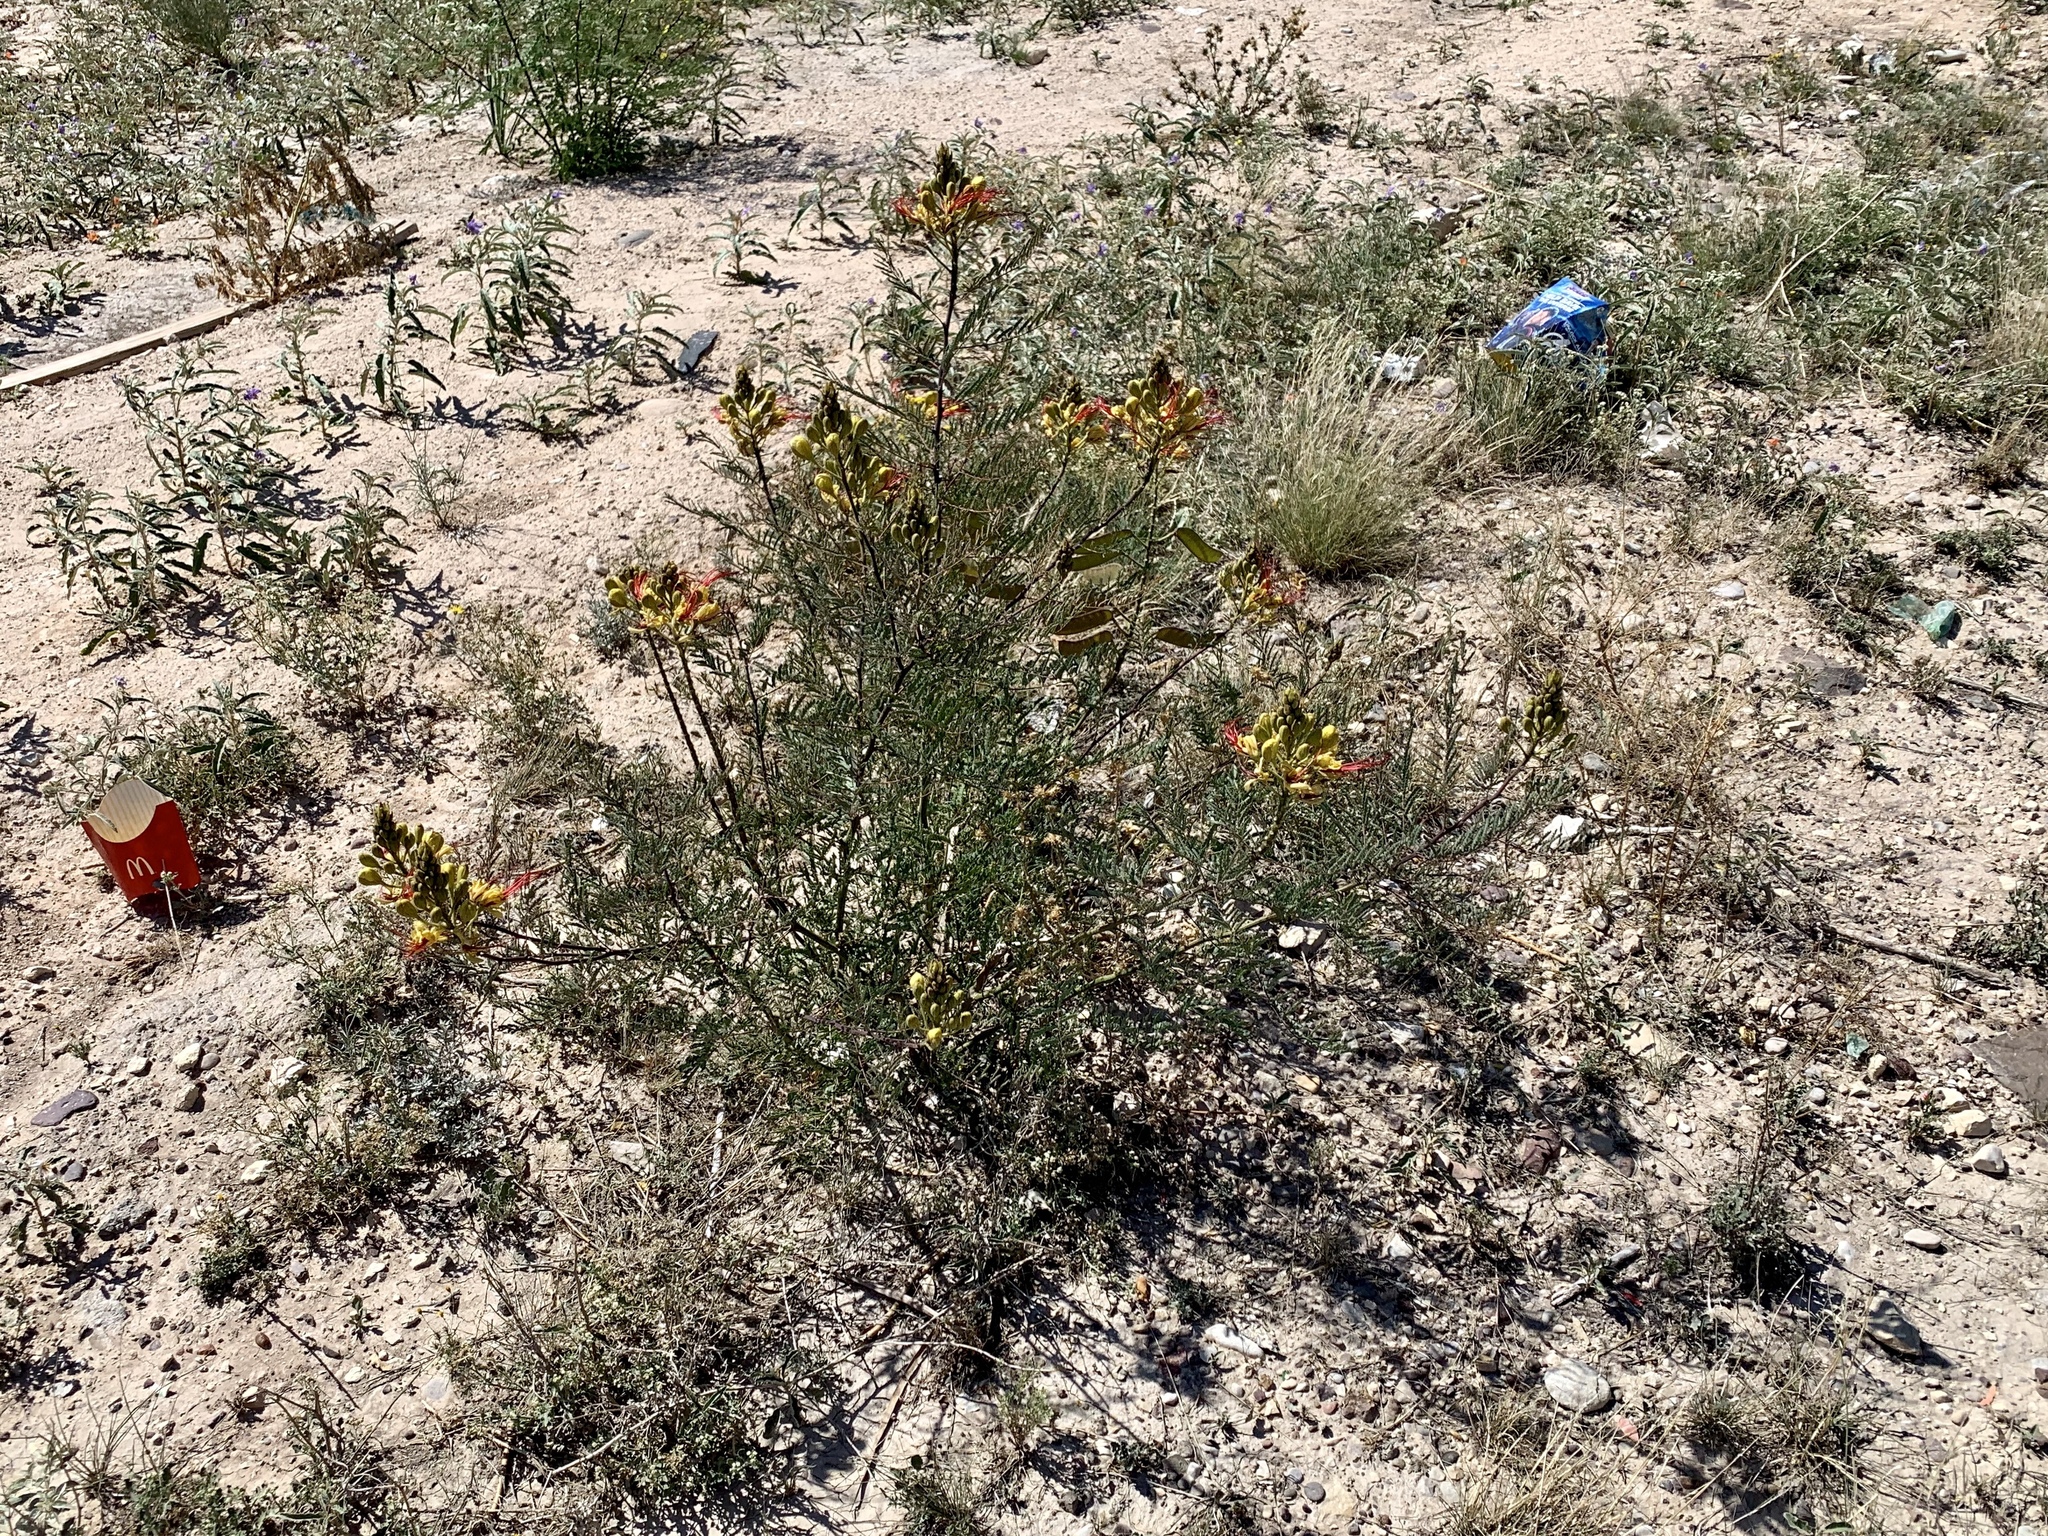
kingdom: Plantae
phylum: Tracheophyta
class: Magnoliopsida
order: Fabales
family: Fabaceae
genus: Erythrostemon
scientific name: Erythrostemon gilliesii
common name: Bird-of-paradise shrub
